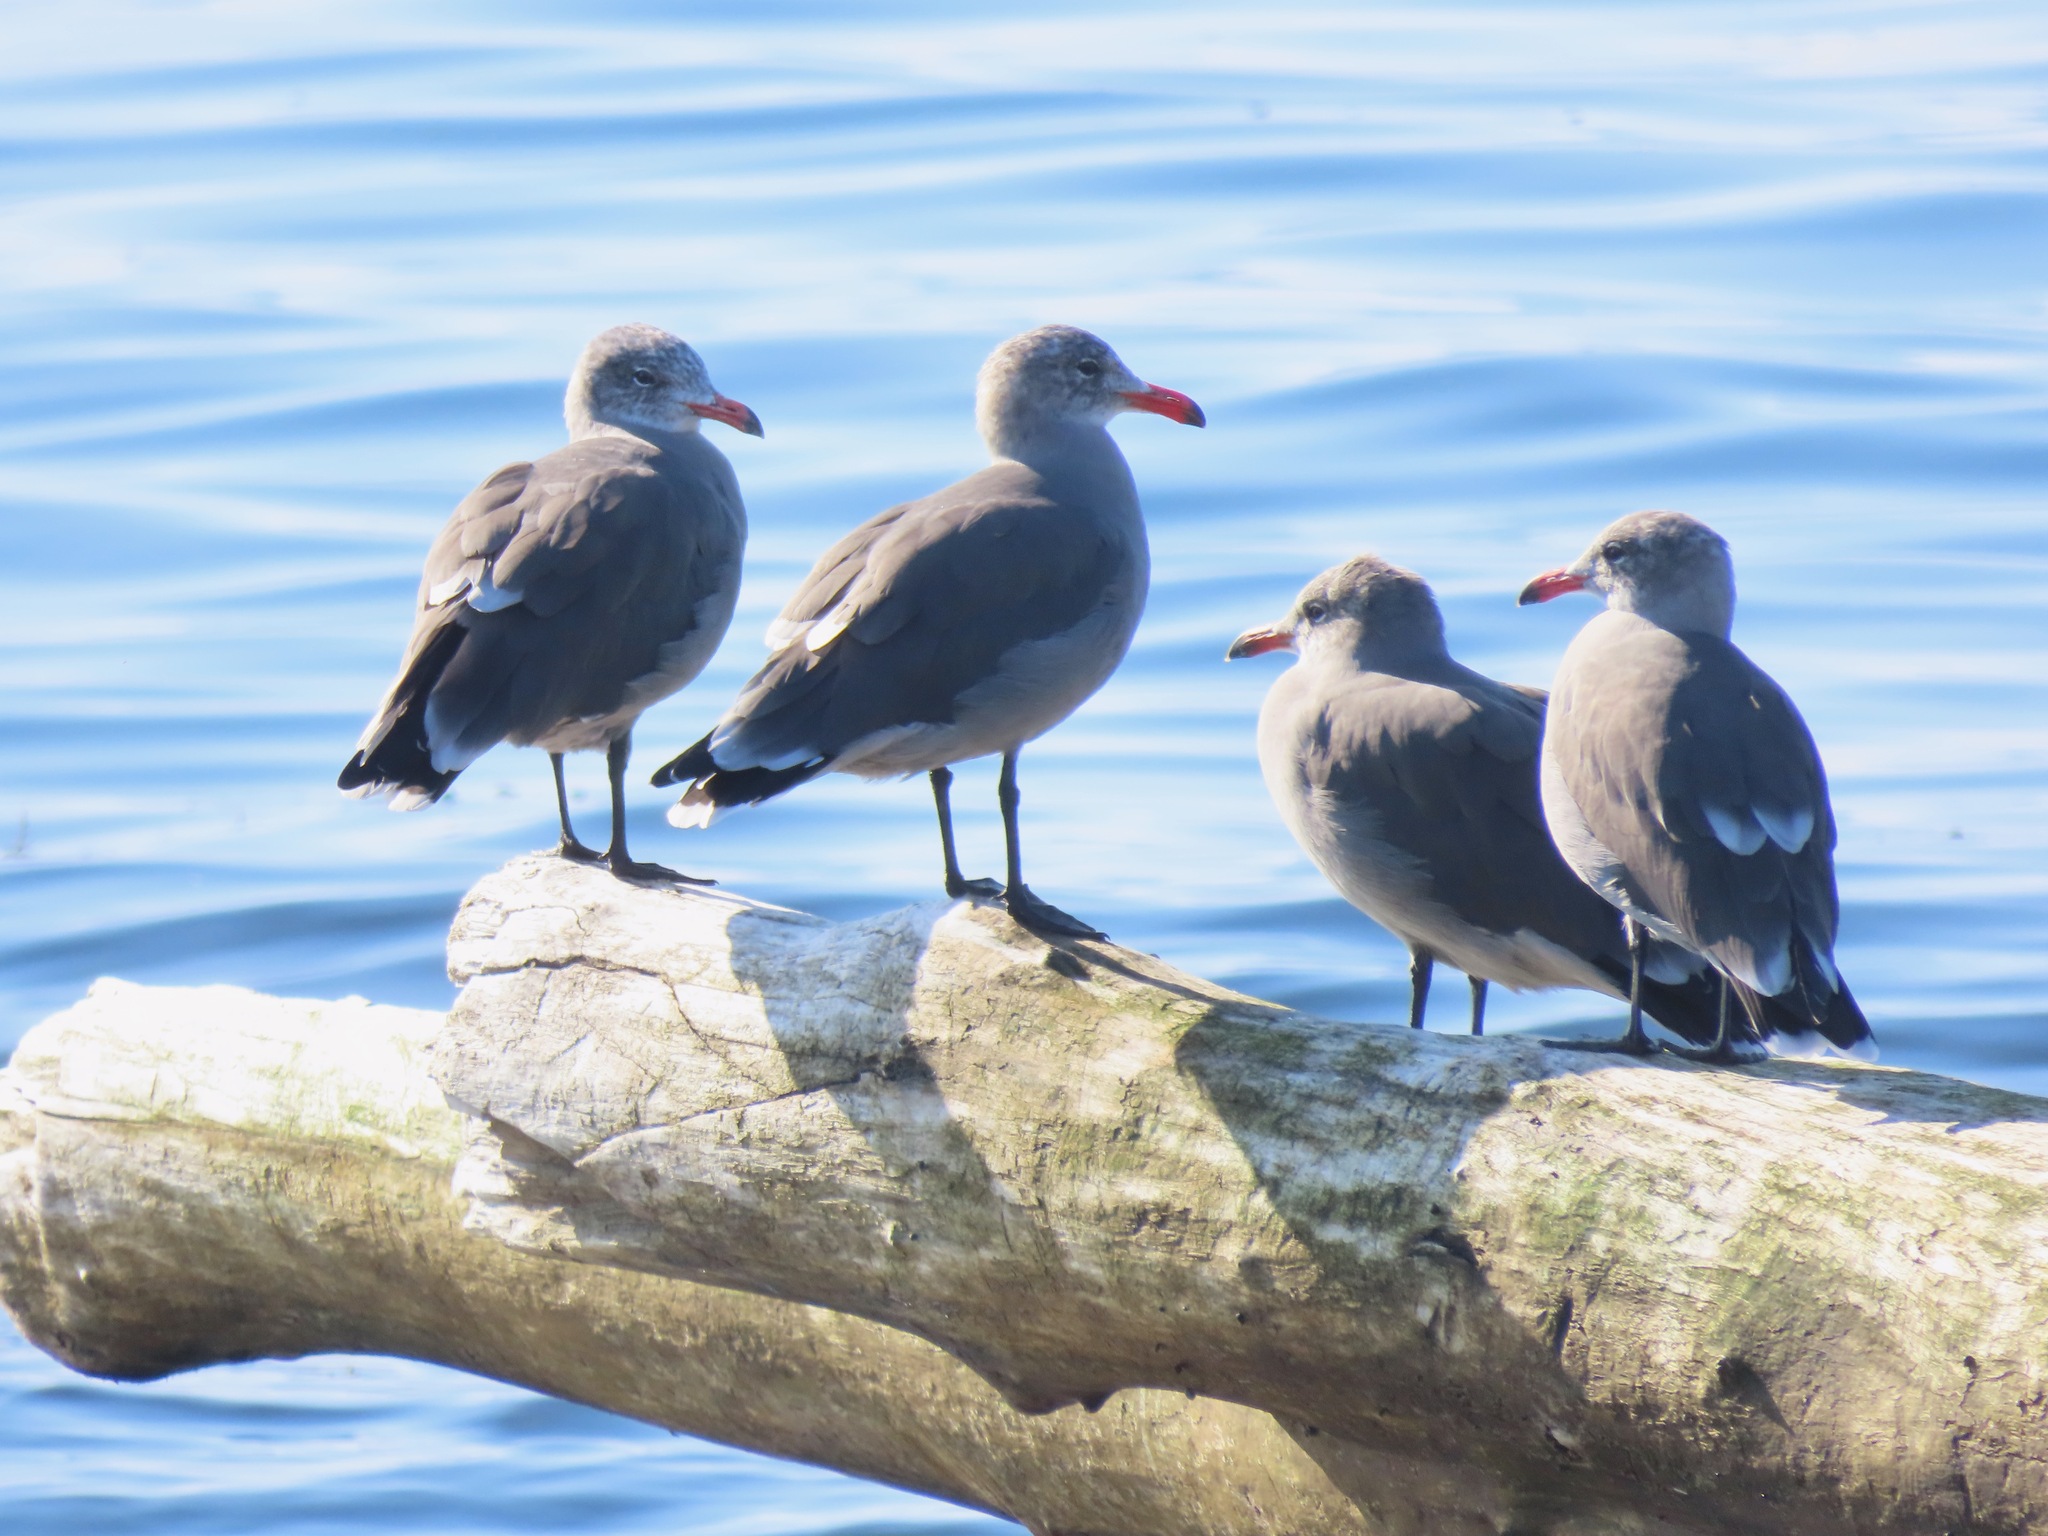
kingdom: Animalia
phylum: Chordata
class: Aves
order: Charadriiformes
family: Laridae
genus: Larus
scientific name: Larus heermanni
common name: Heermann's gull
